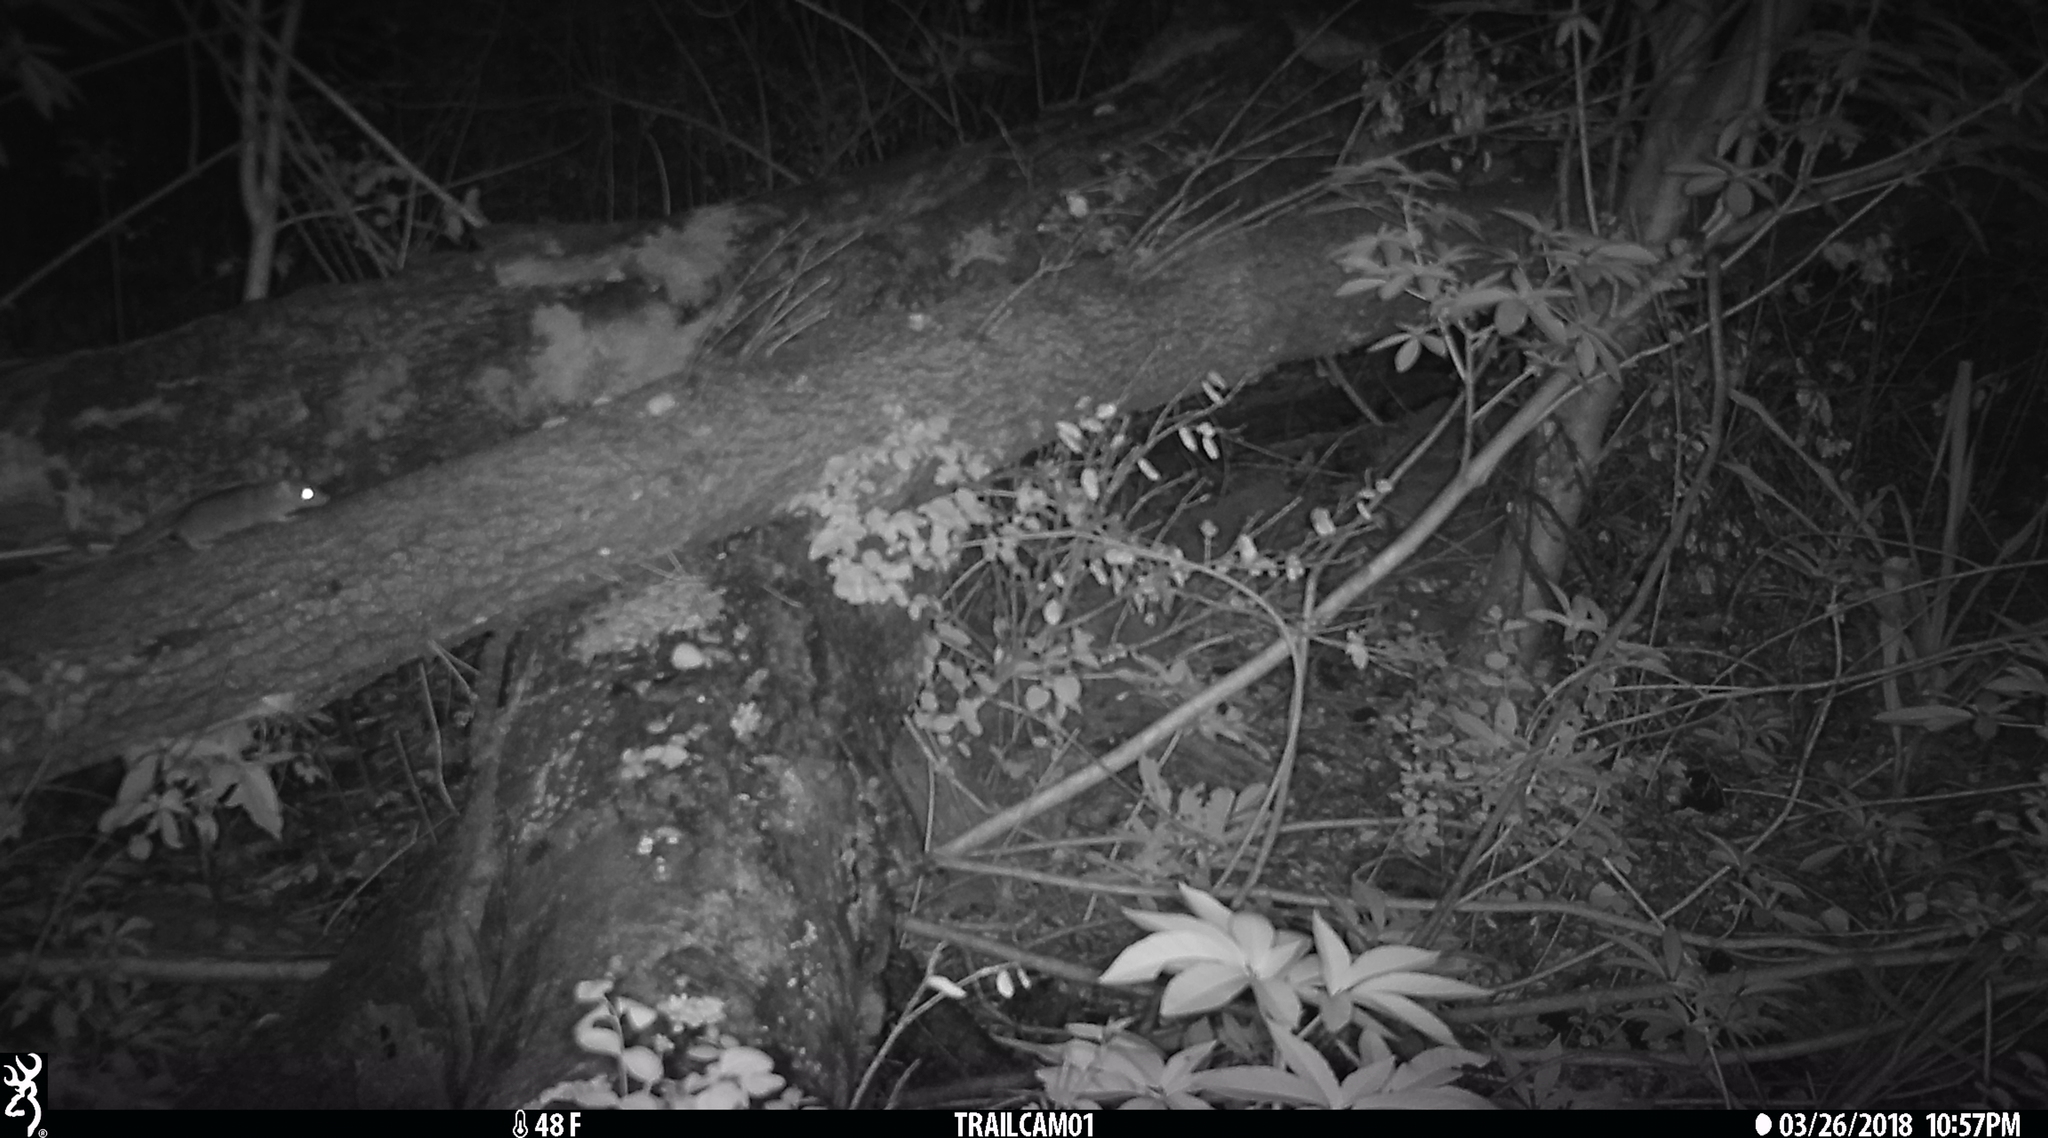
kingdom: Animalia
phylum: Chordata
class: Mammalia
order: Rodentia
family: Cricetidae
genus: Neotoma
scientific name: Neotoma fuscipes
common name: Dusky-footed woodrat
